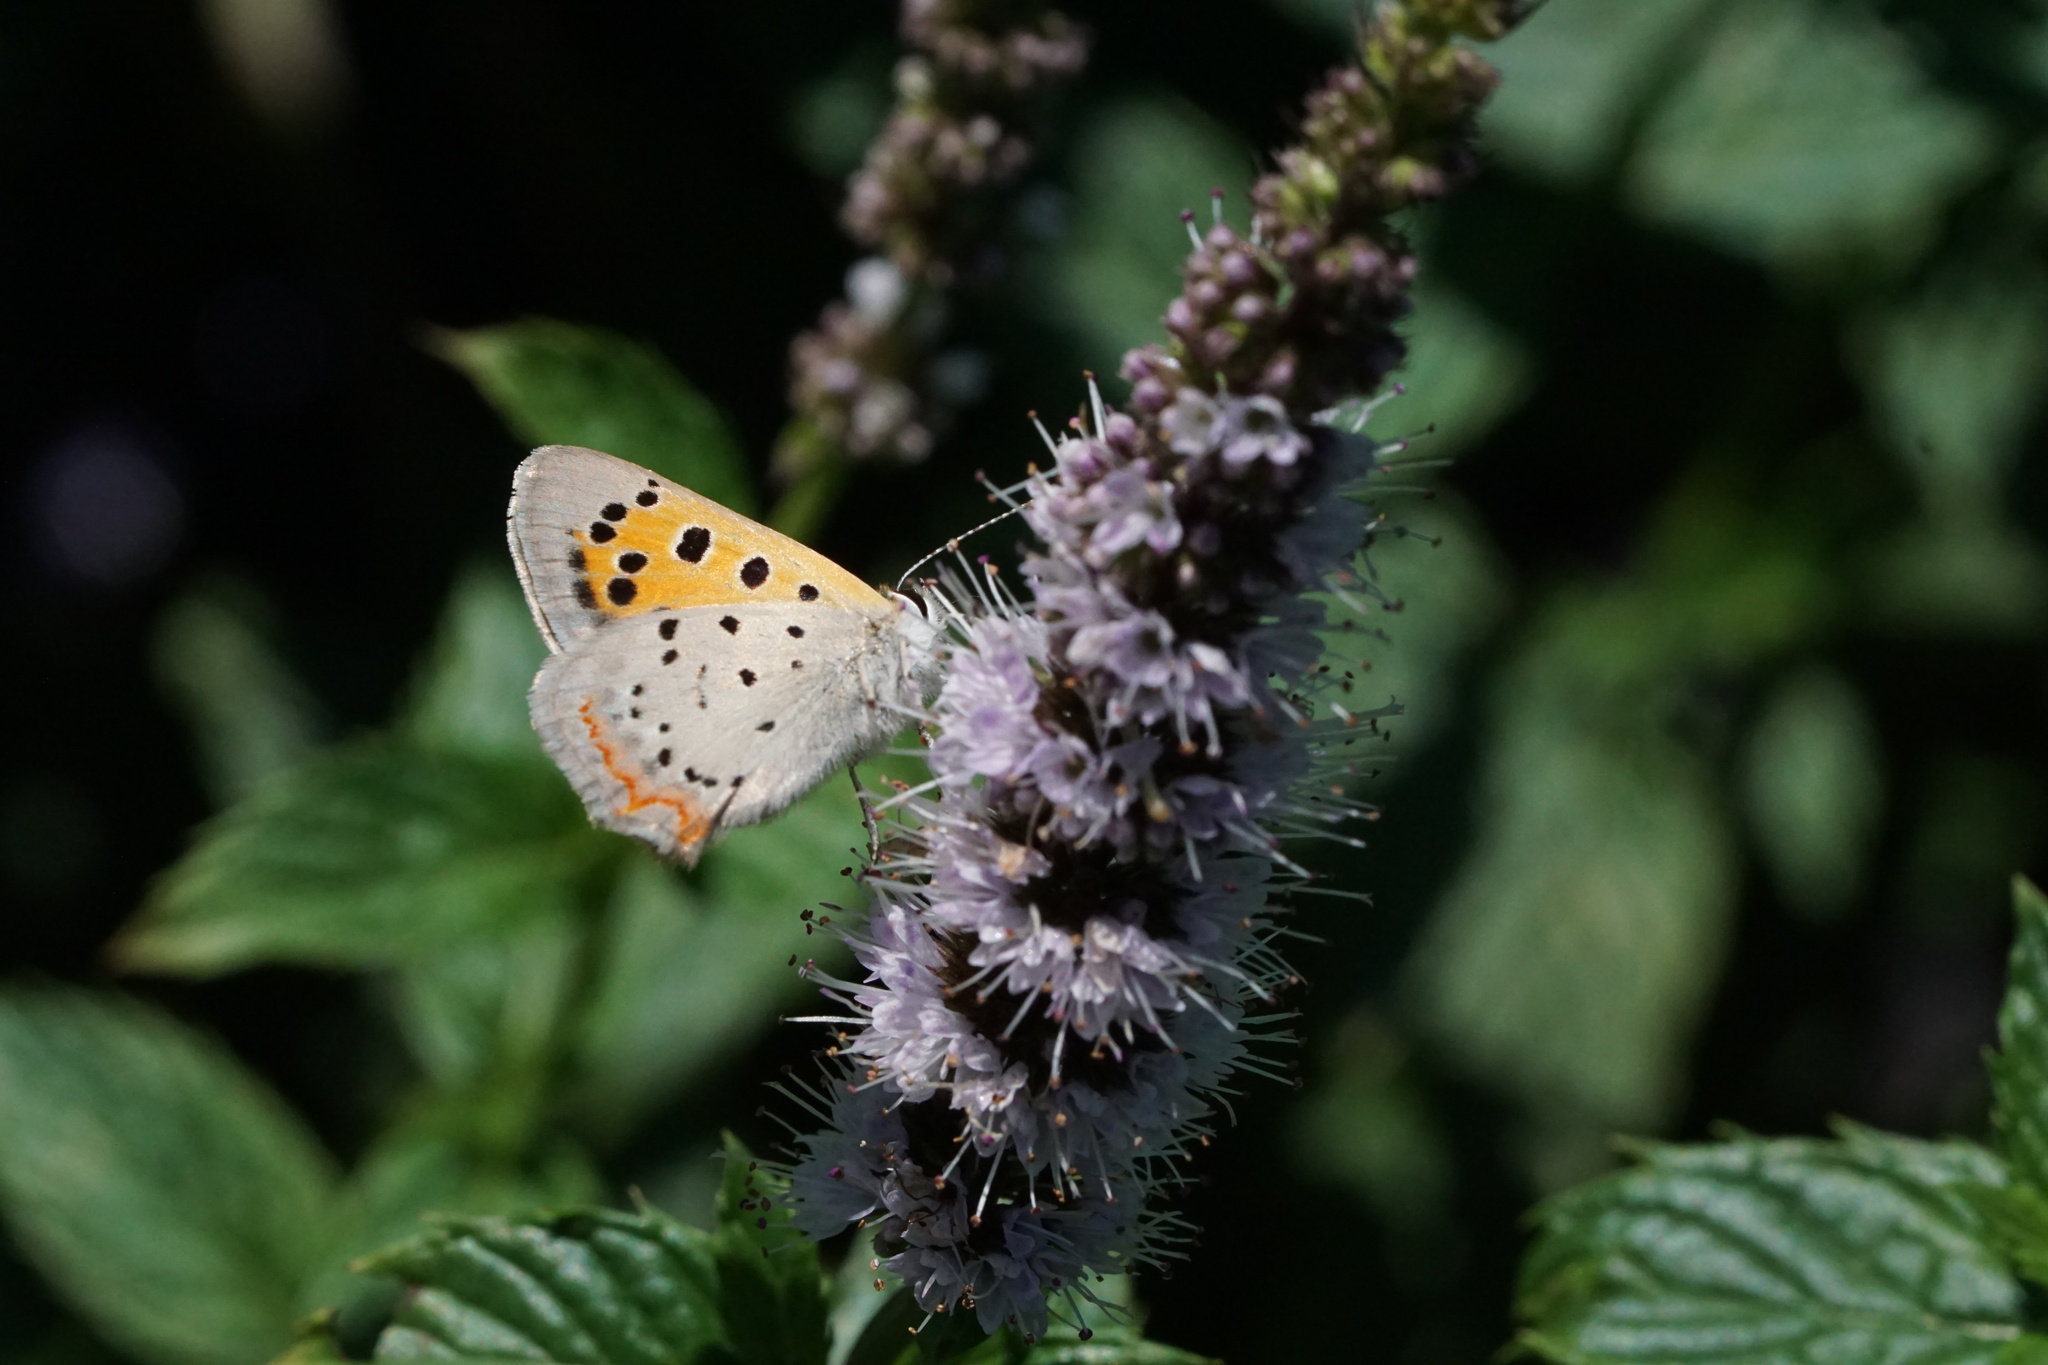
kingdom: Animalia
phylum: Arthropoda
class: Insecta
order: Lepidoptera
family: Lycaenidae
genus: Lycaena
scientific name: Lycaena hypophlaeas
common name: American copper
